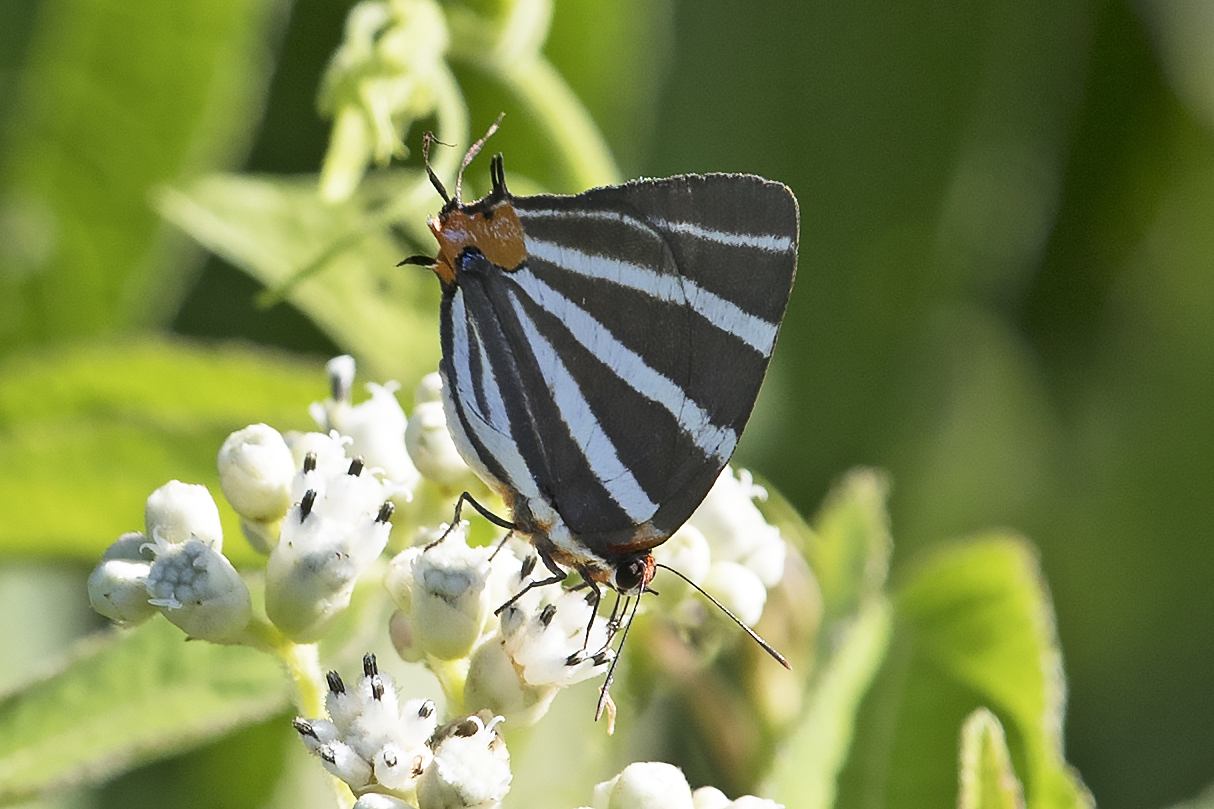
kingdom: Animalia
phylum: Arthropoda
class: Insecta
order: Lepidoptera
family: Lycaenidae
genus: Thecla
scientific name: Thecla bathildis
